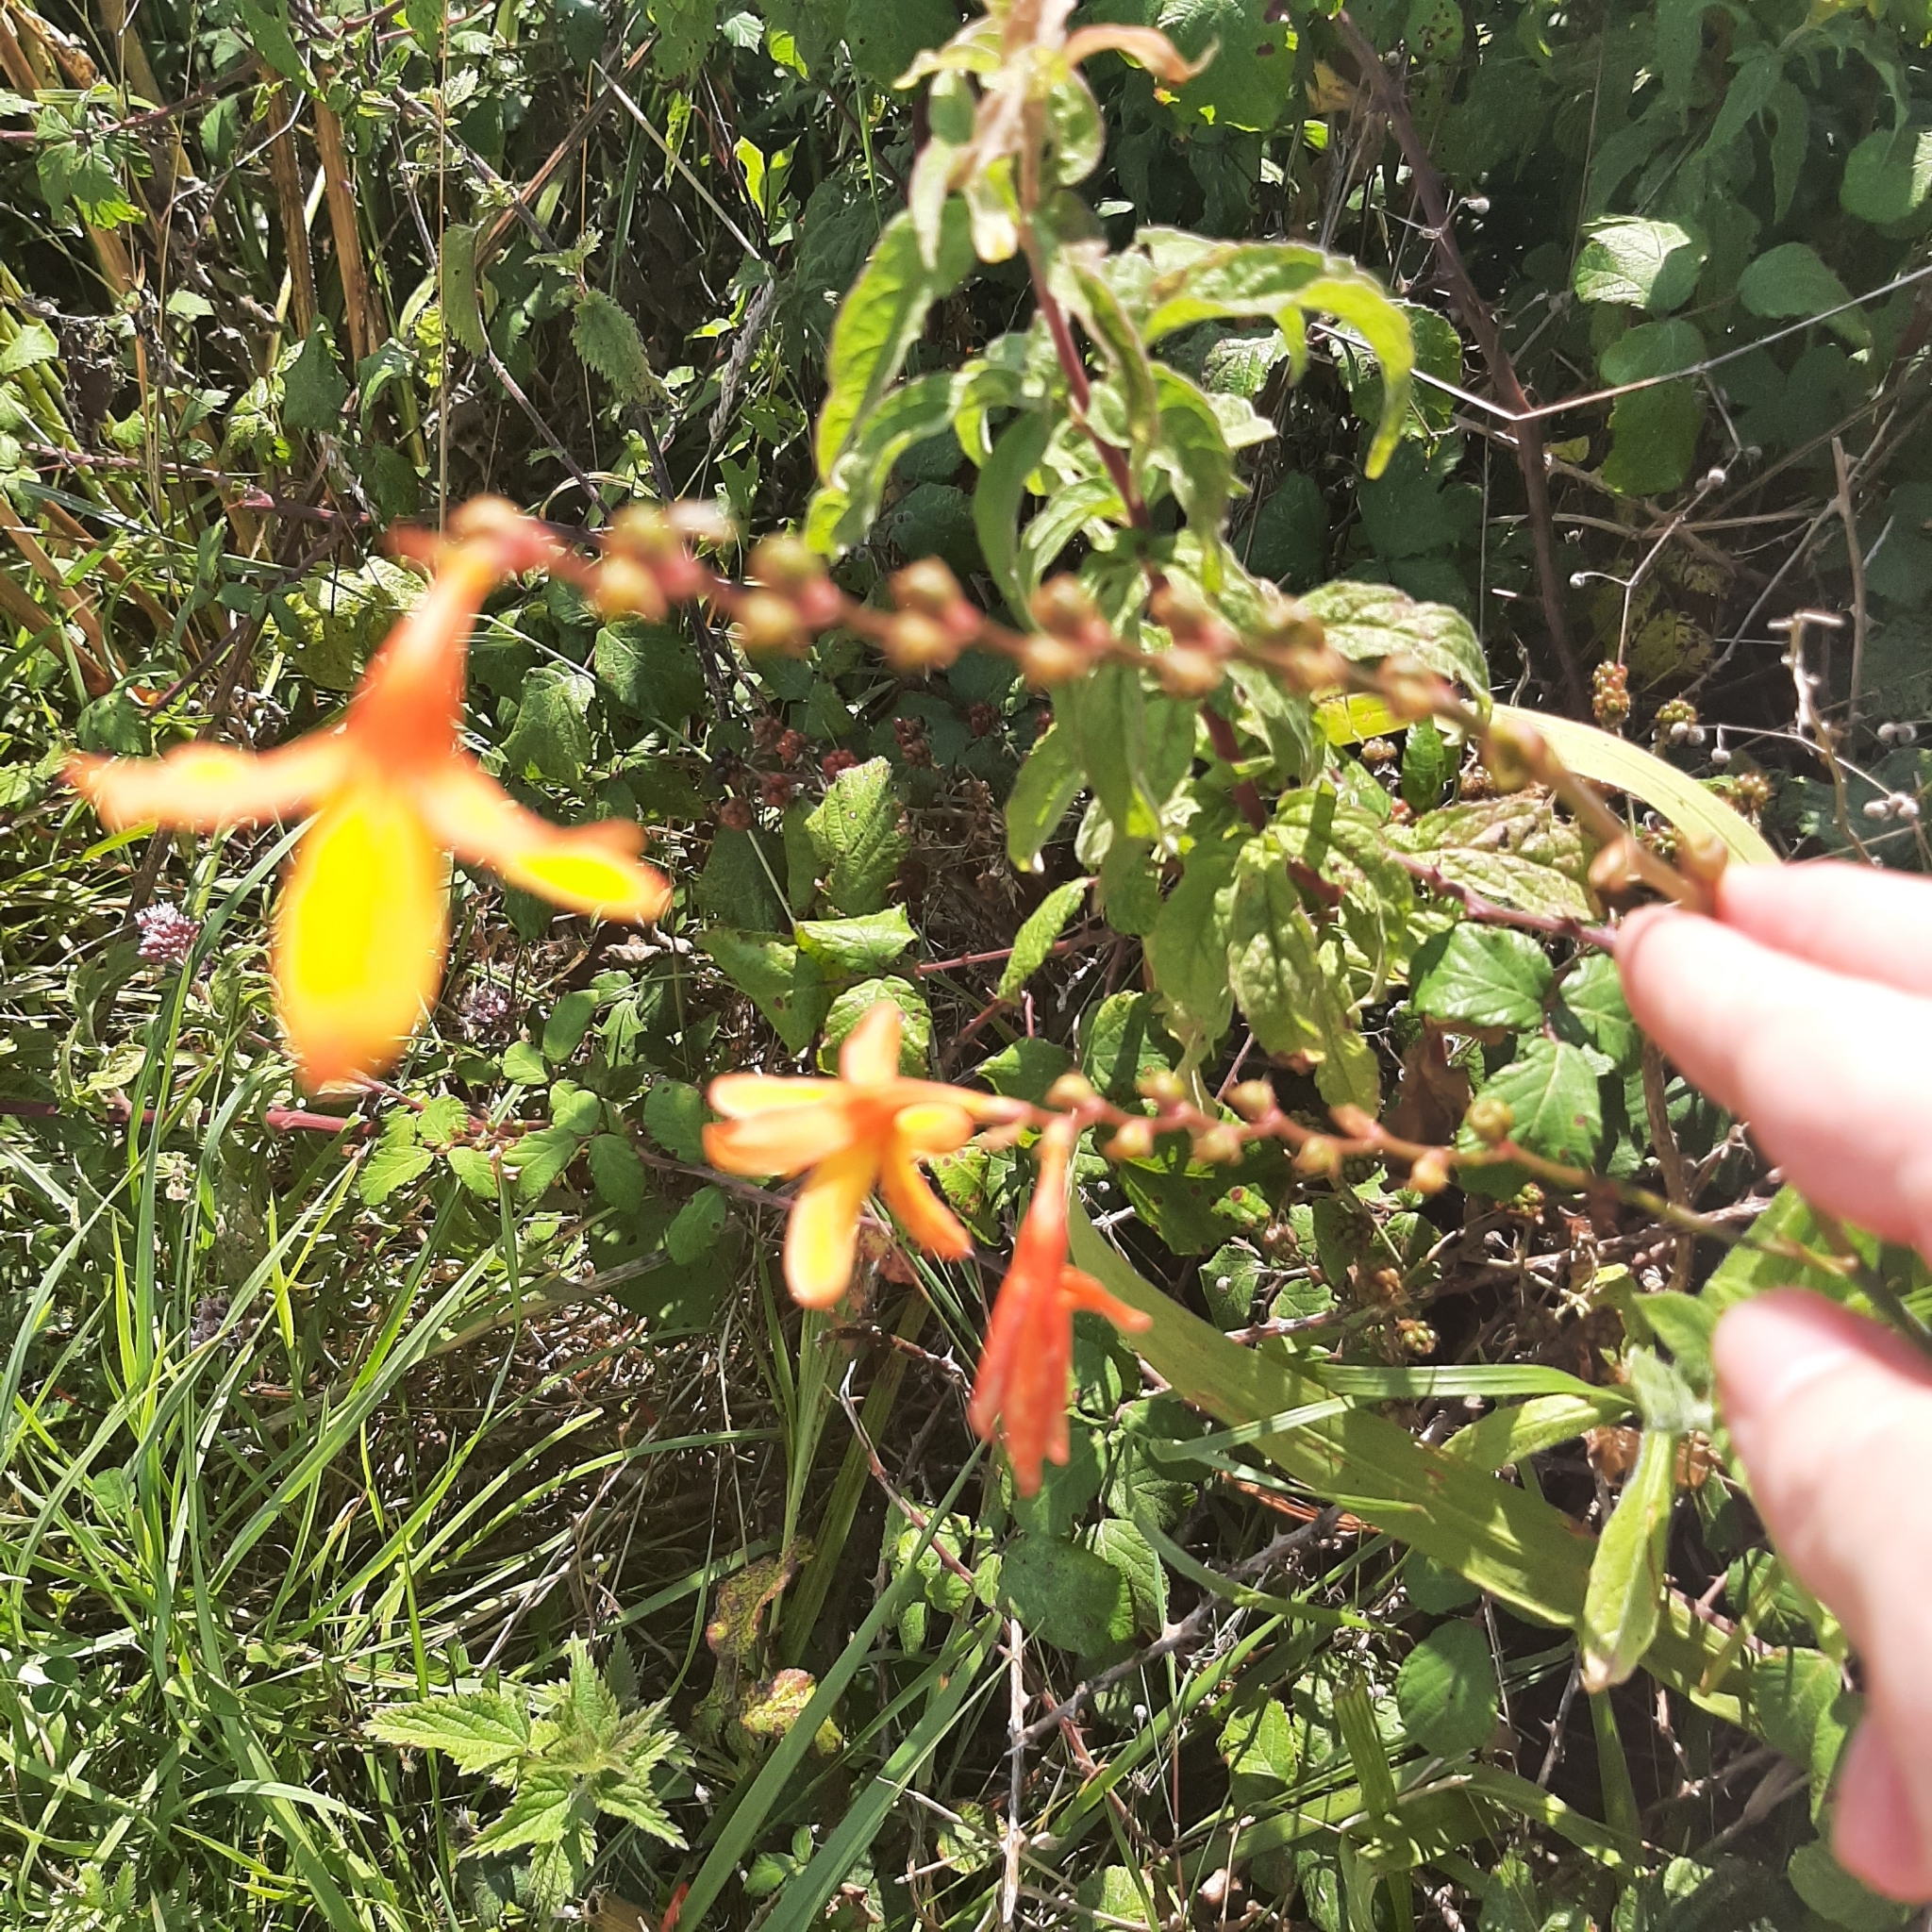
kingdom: Plantae
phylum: Tracheophyta
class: Liliopsida
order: Asparagales
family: Iridaceae
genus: Crocosmia
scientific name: Crocosmia crocosmiiflora
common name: Montbretia
